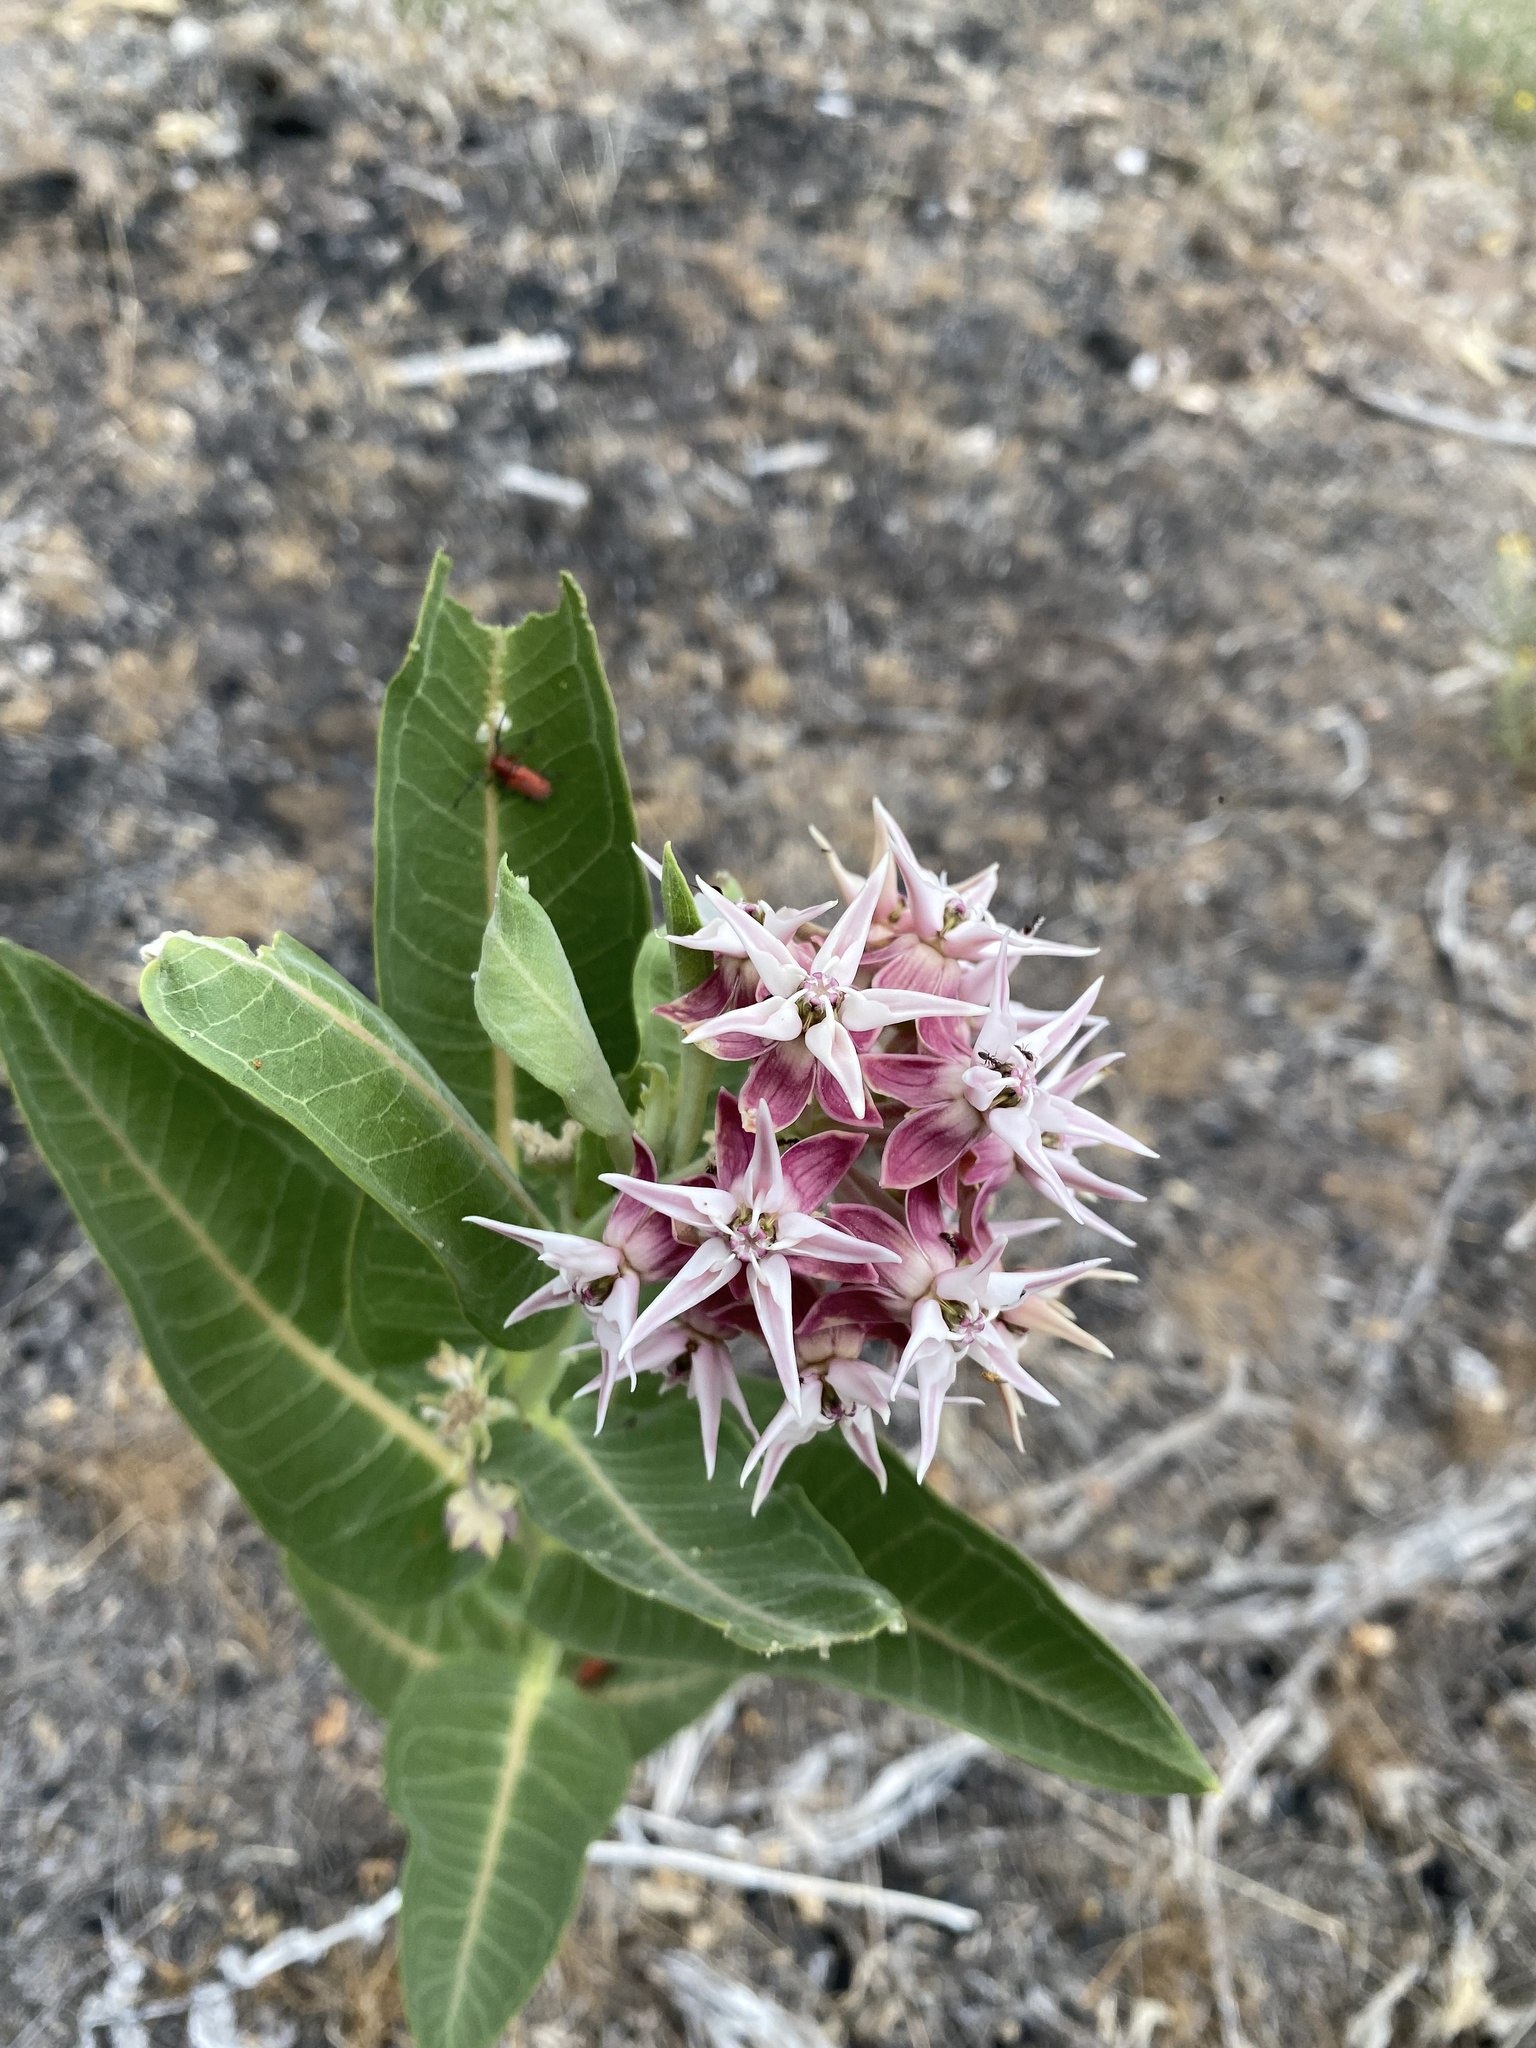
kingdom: Plantae
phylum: Tracheophyta
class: Magnoliopsida
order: Gentianales
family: Apocynaceae
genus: Asclepias
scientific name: Asclepias speciosa
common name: Showy milkweed
